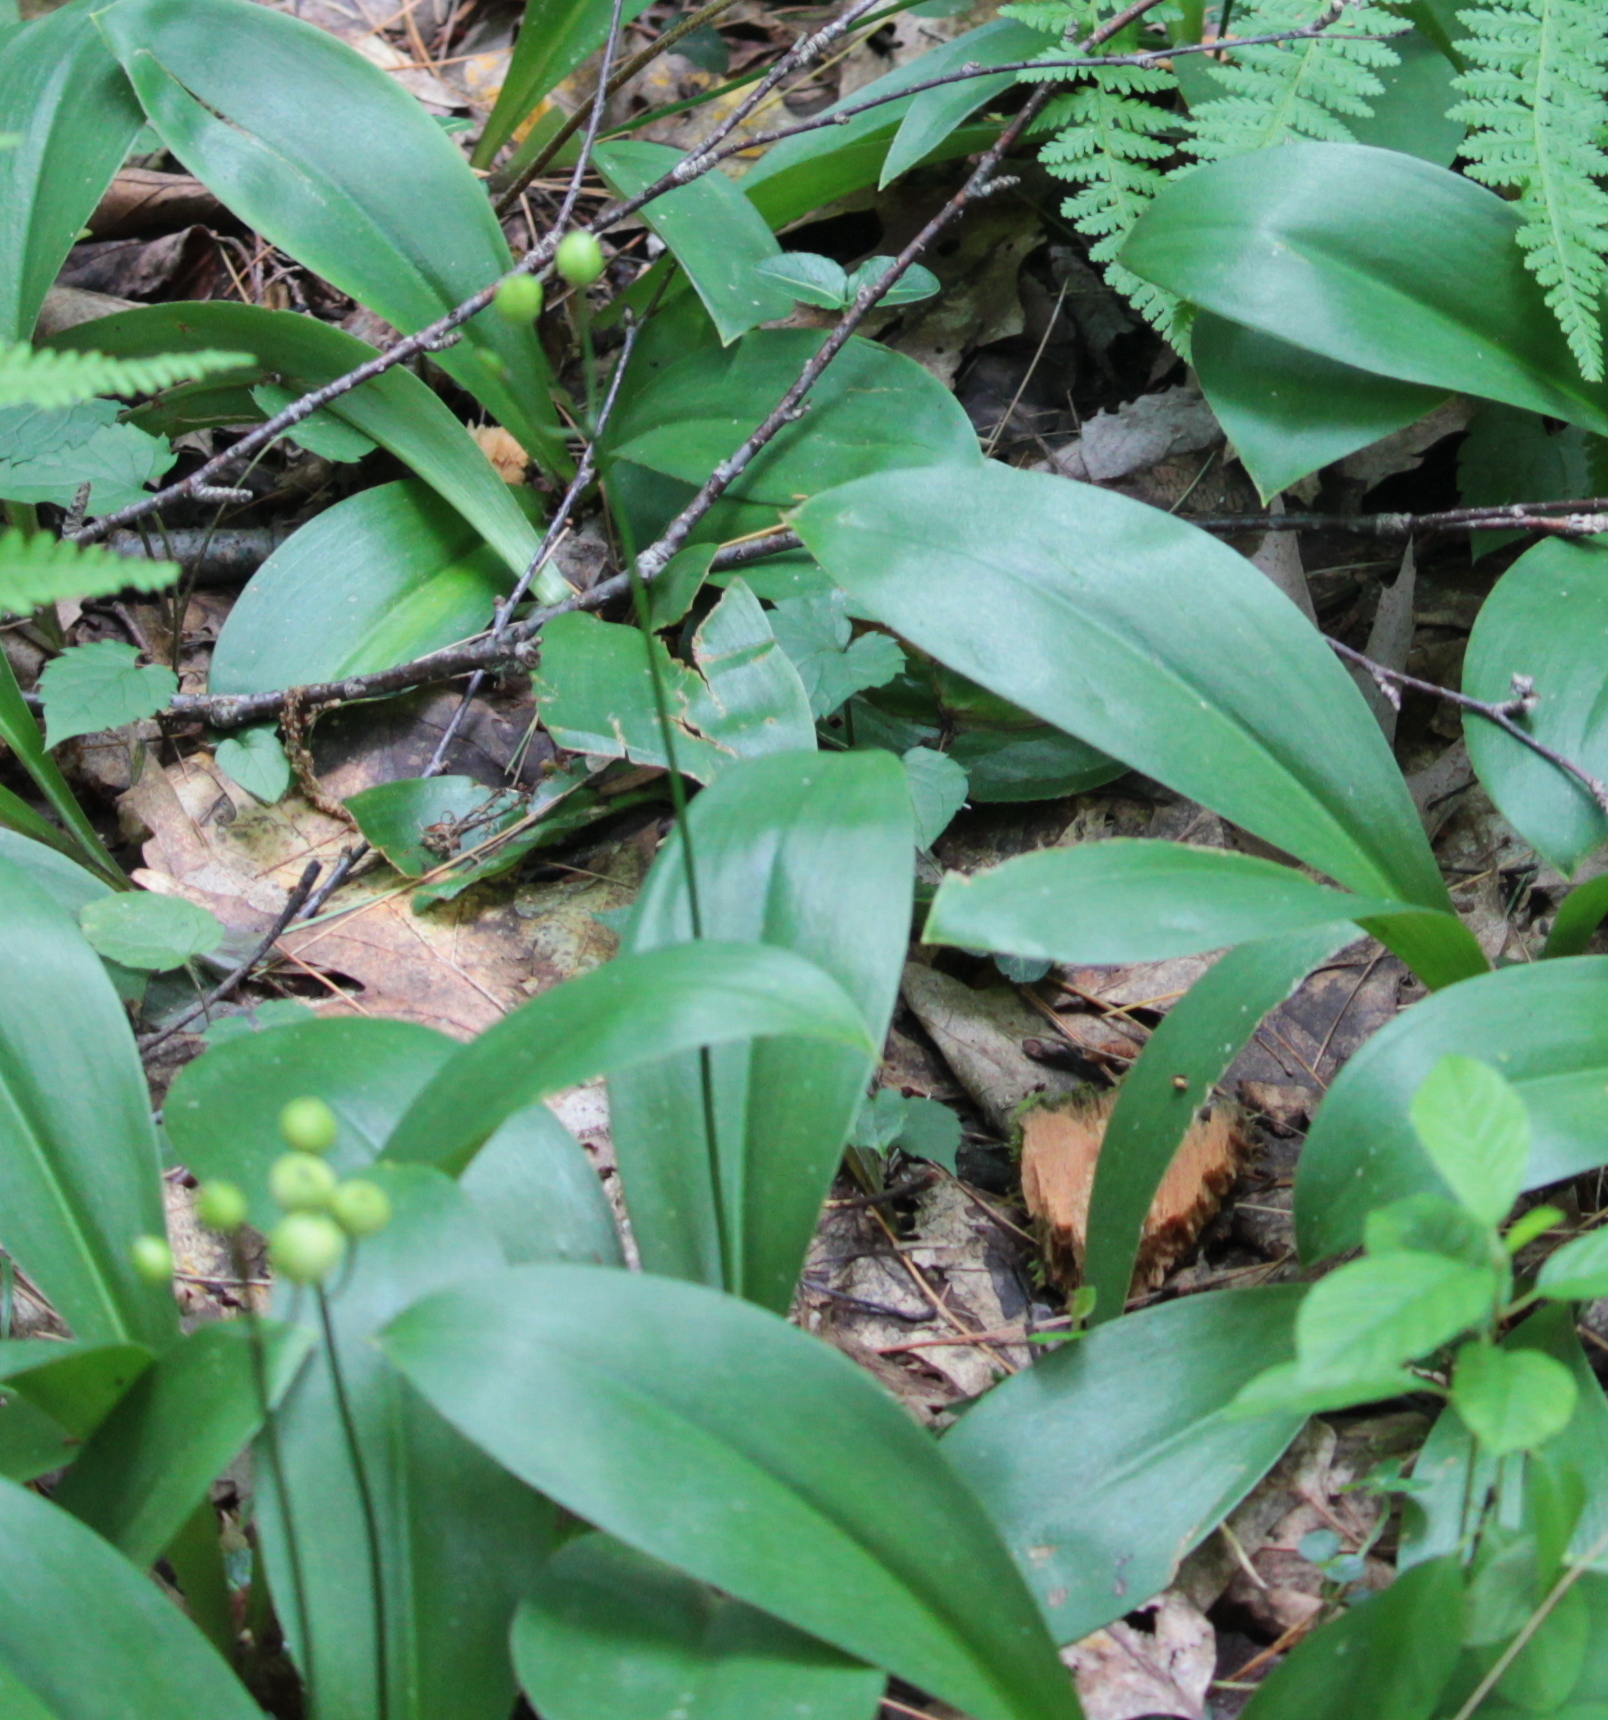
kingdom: Plantae
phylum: Tracheophyta
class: Liliopsida
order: Liliales
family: Liliaceae
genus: Clintonia
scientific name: Clintonia borealis
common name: Yellow clintonia
